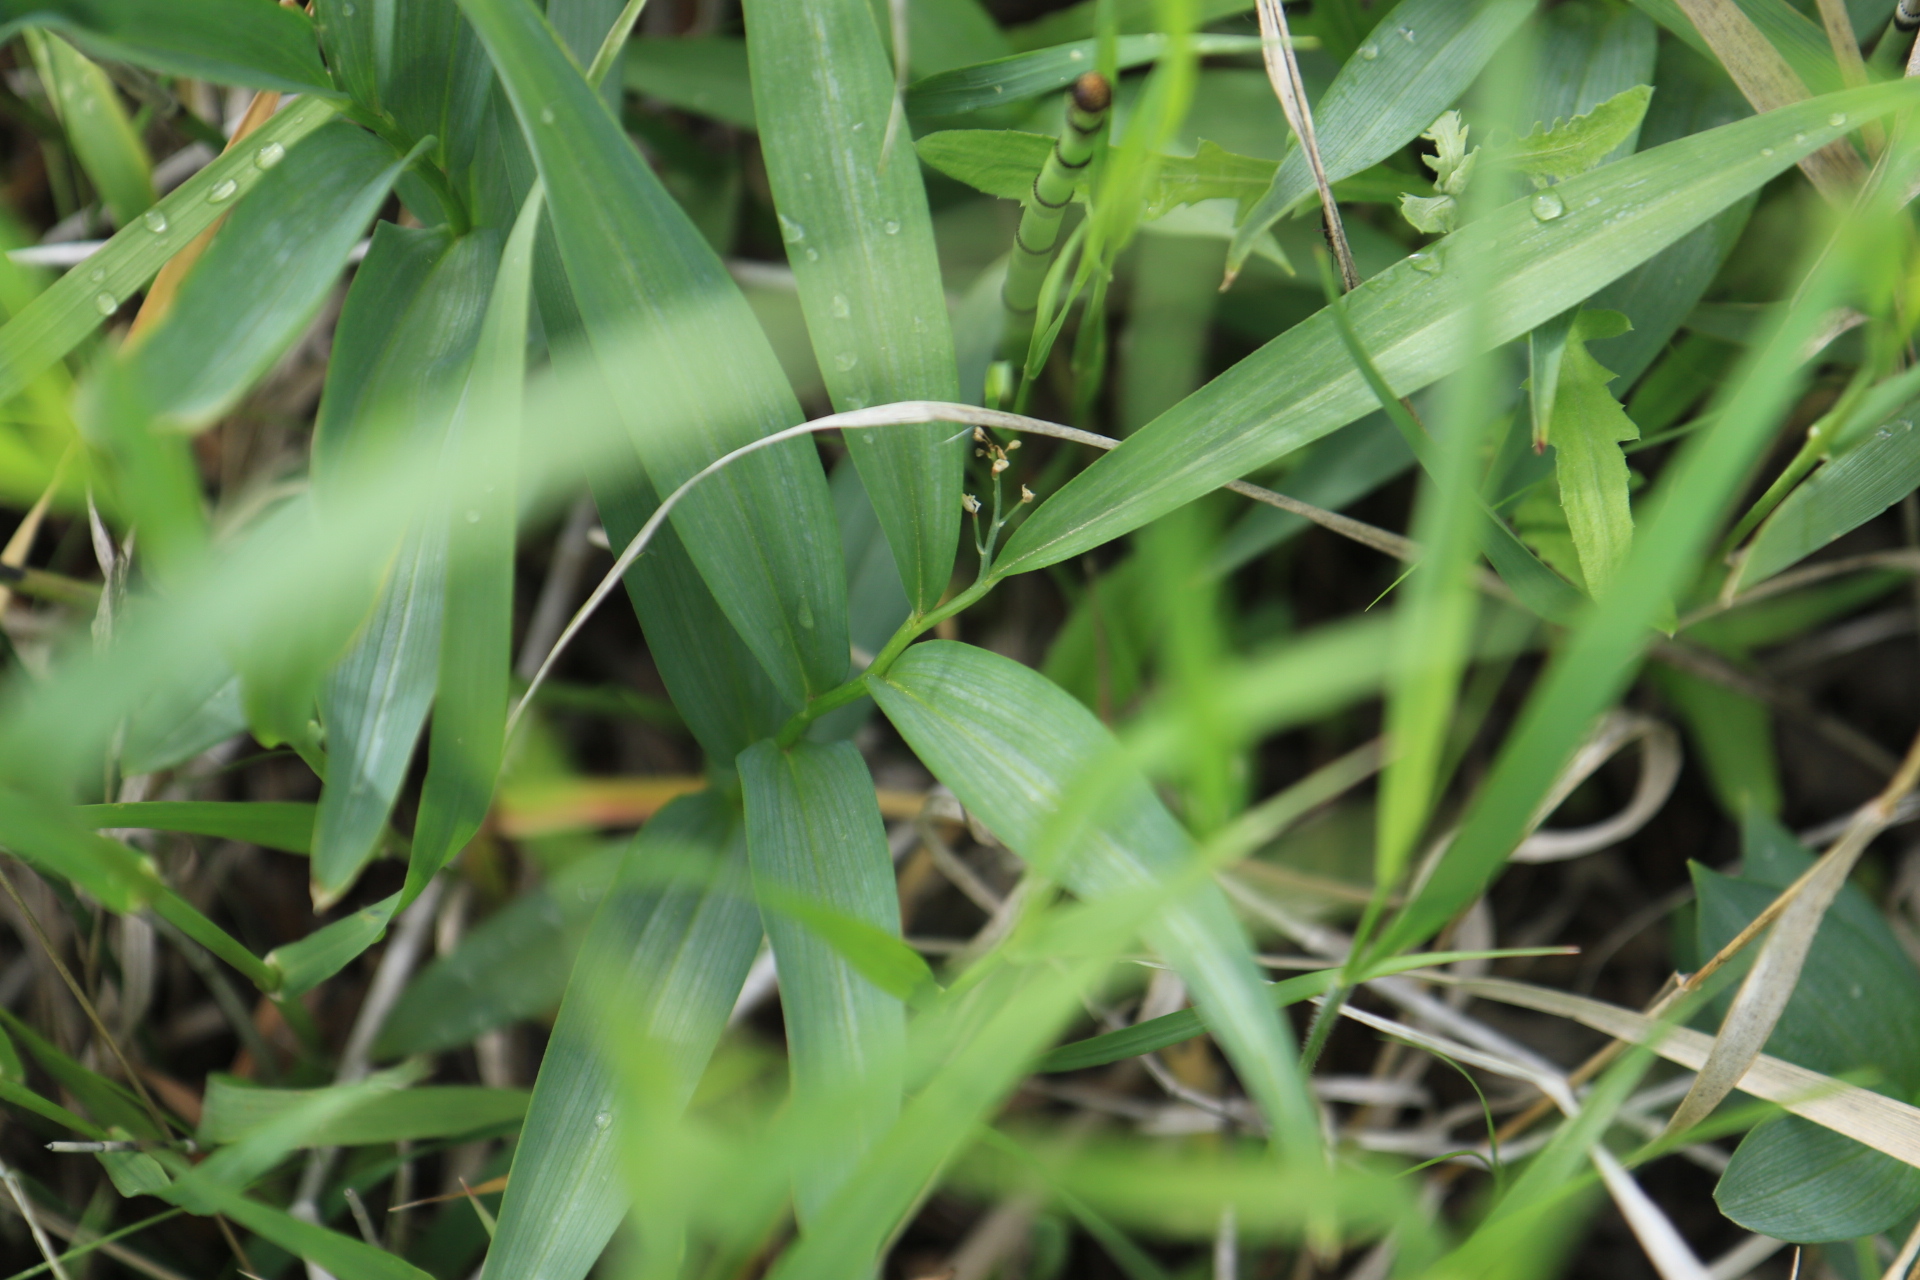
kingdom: Plantae
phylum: Tracheophyta
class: Liliopsida
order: Asparagales
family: Asparagaceae
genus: Maianthemum
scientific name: Maianthemum stellatum
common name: Little false solomon's seal
